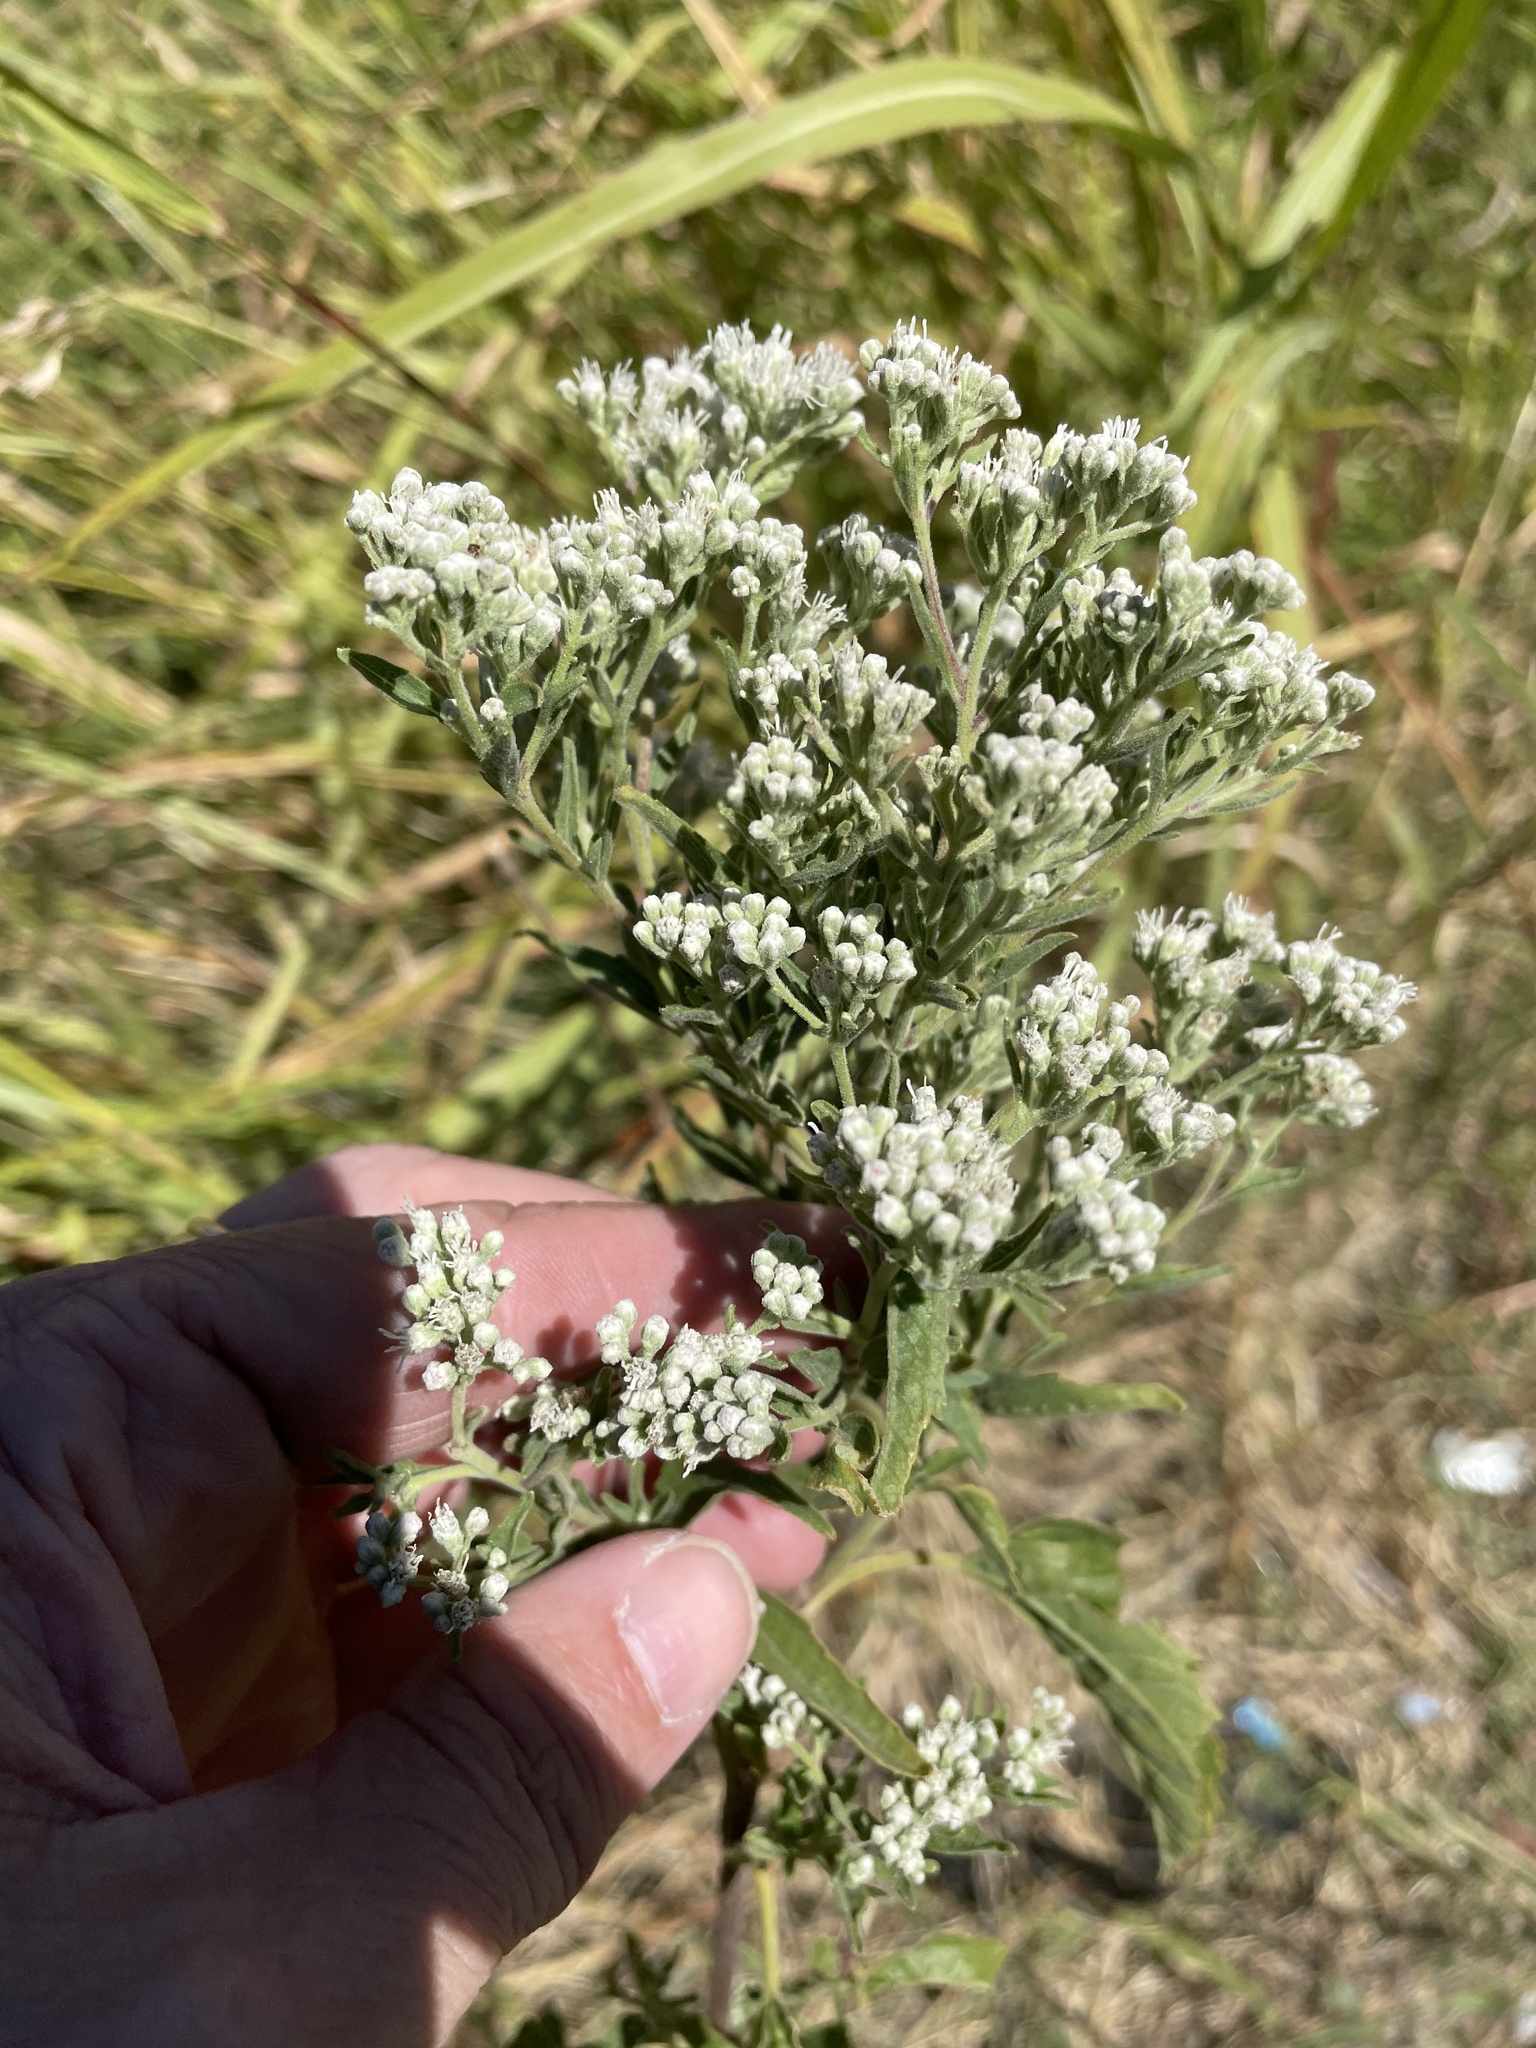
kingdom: Plantae
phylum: Tracheophyta
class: Magnoliopsida
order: Asterales
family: Asteraceae
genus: Eupatorium
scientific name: Eupatorium serotinum
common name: Late boneset
